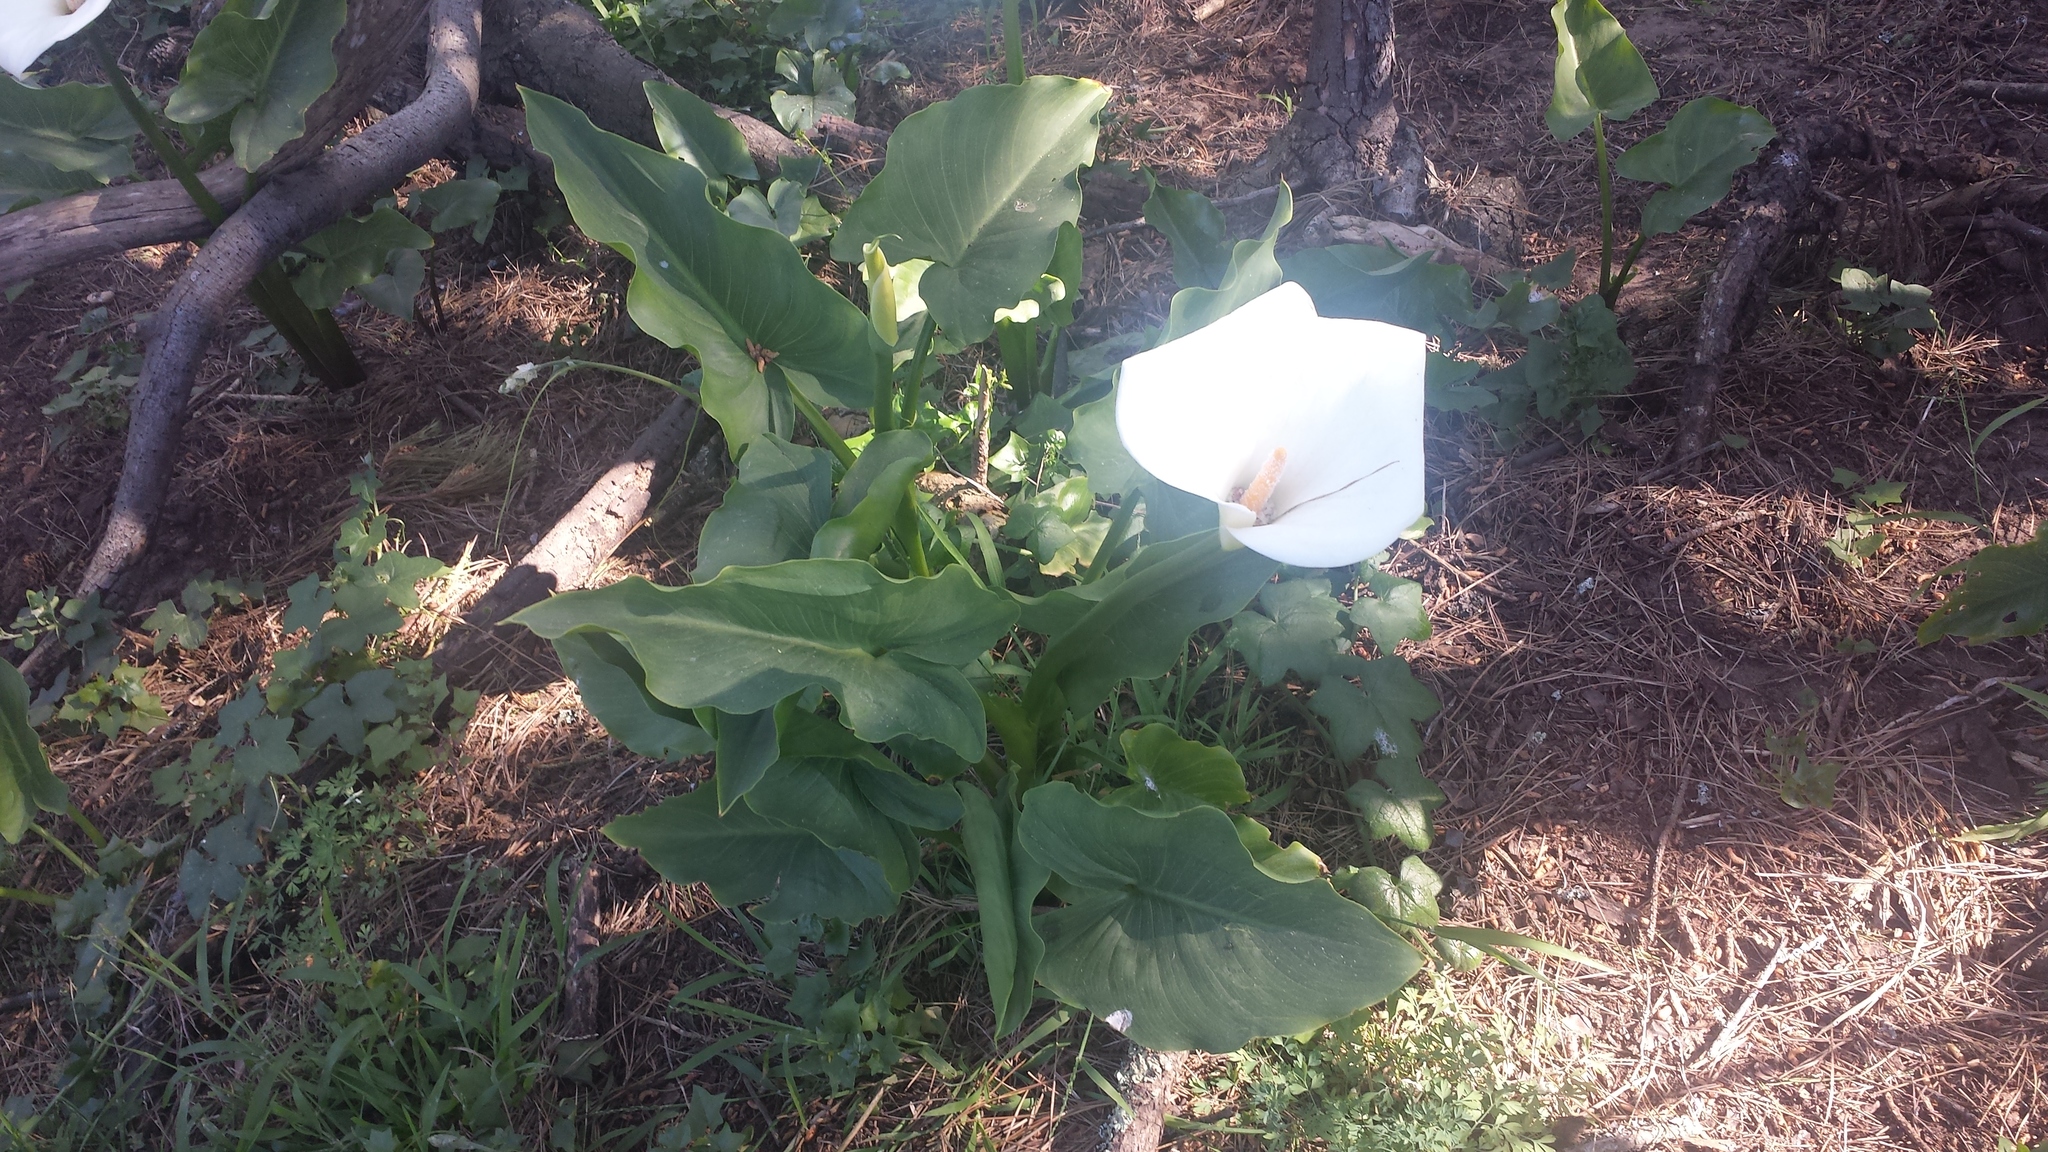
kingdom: Plantae
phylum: Tracheophyta
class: Liliopsida
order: Alismatales
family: Araceae
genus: Zantedeschia
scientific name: Zantedeschia aethiopica
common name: Altar-lily
